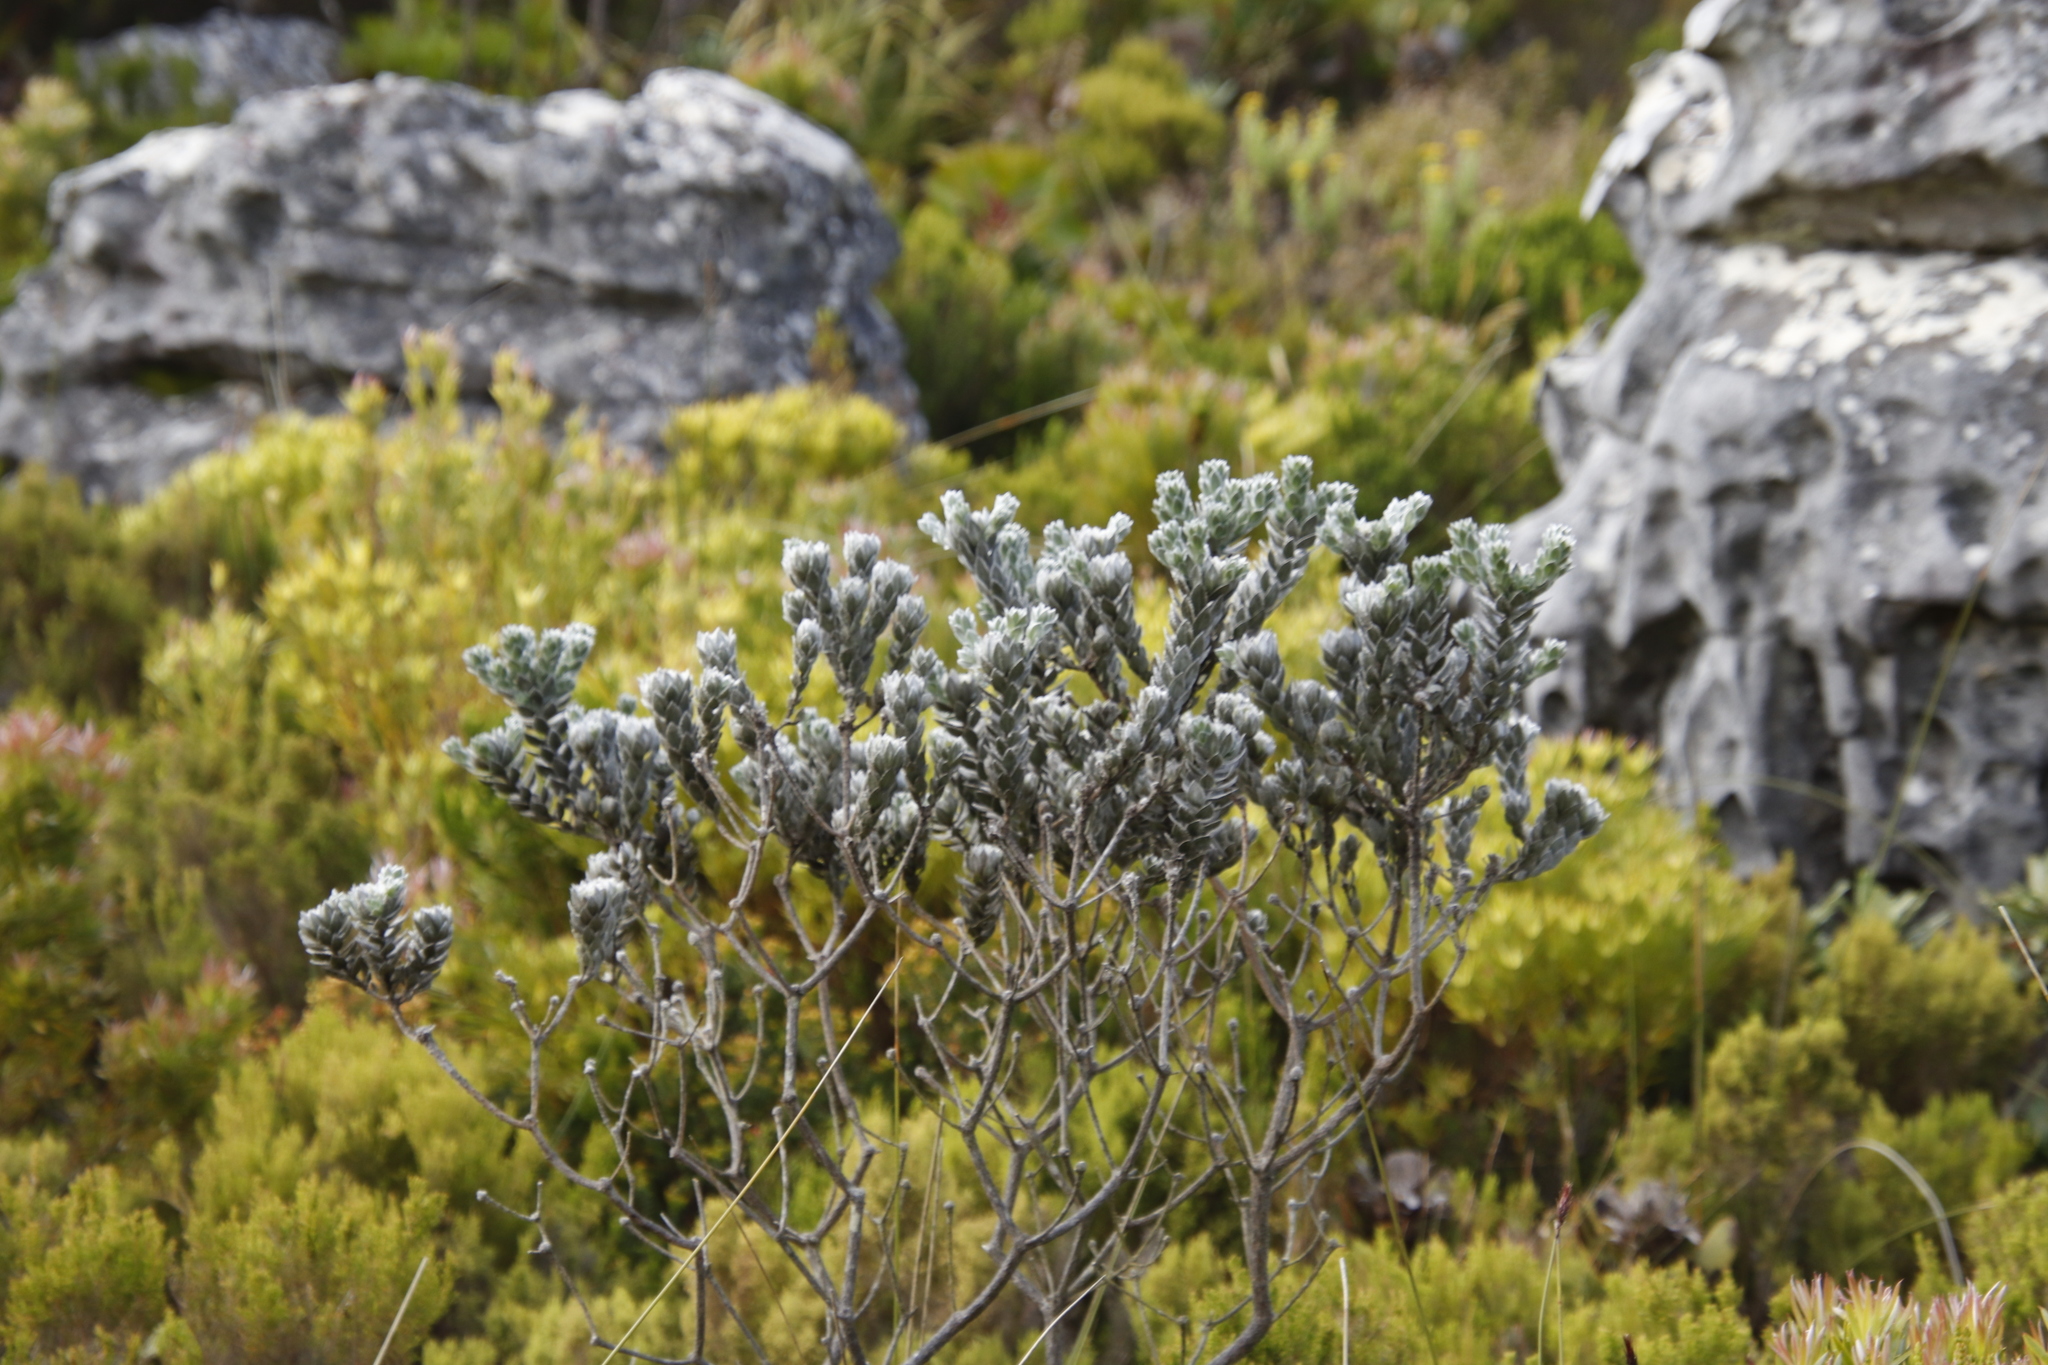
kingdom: Plantae
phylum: Tracheophyta
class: Magnoliopsida
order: Fabales
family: Fabaceae
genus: Xiphotheca
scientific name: Xiphotheca fruticosa
